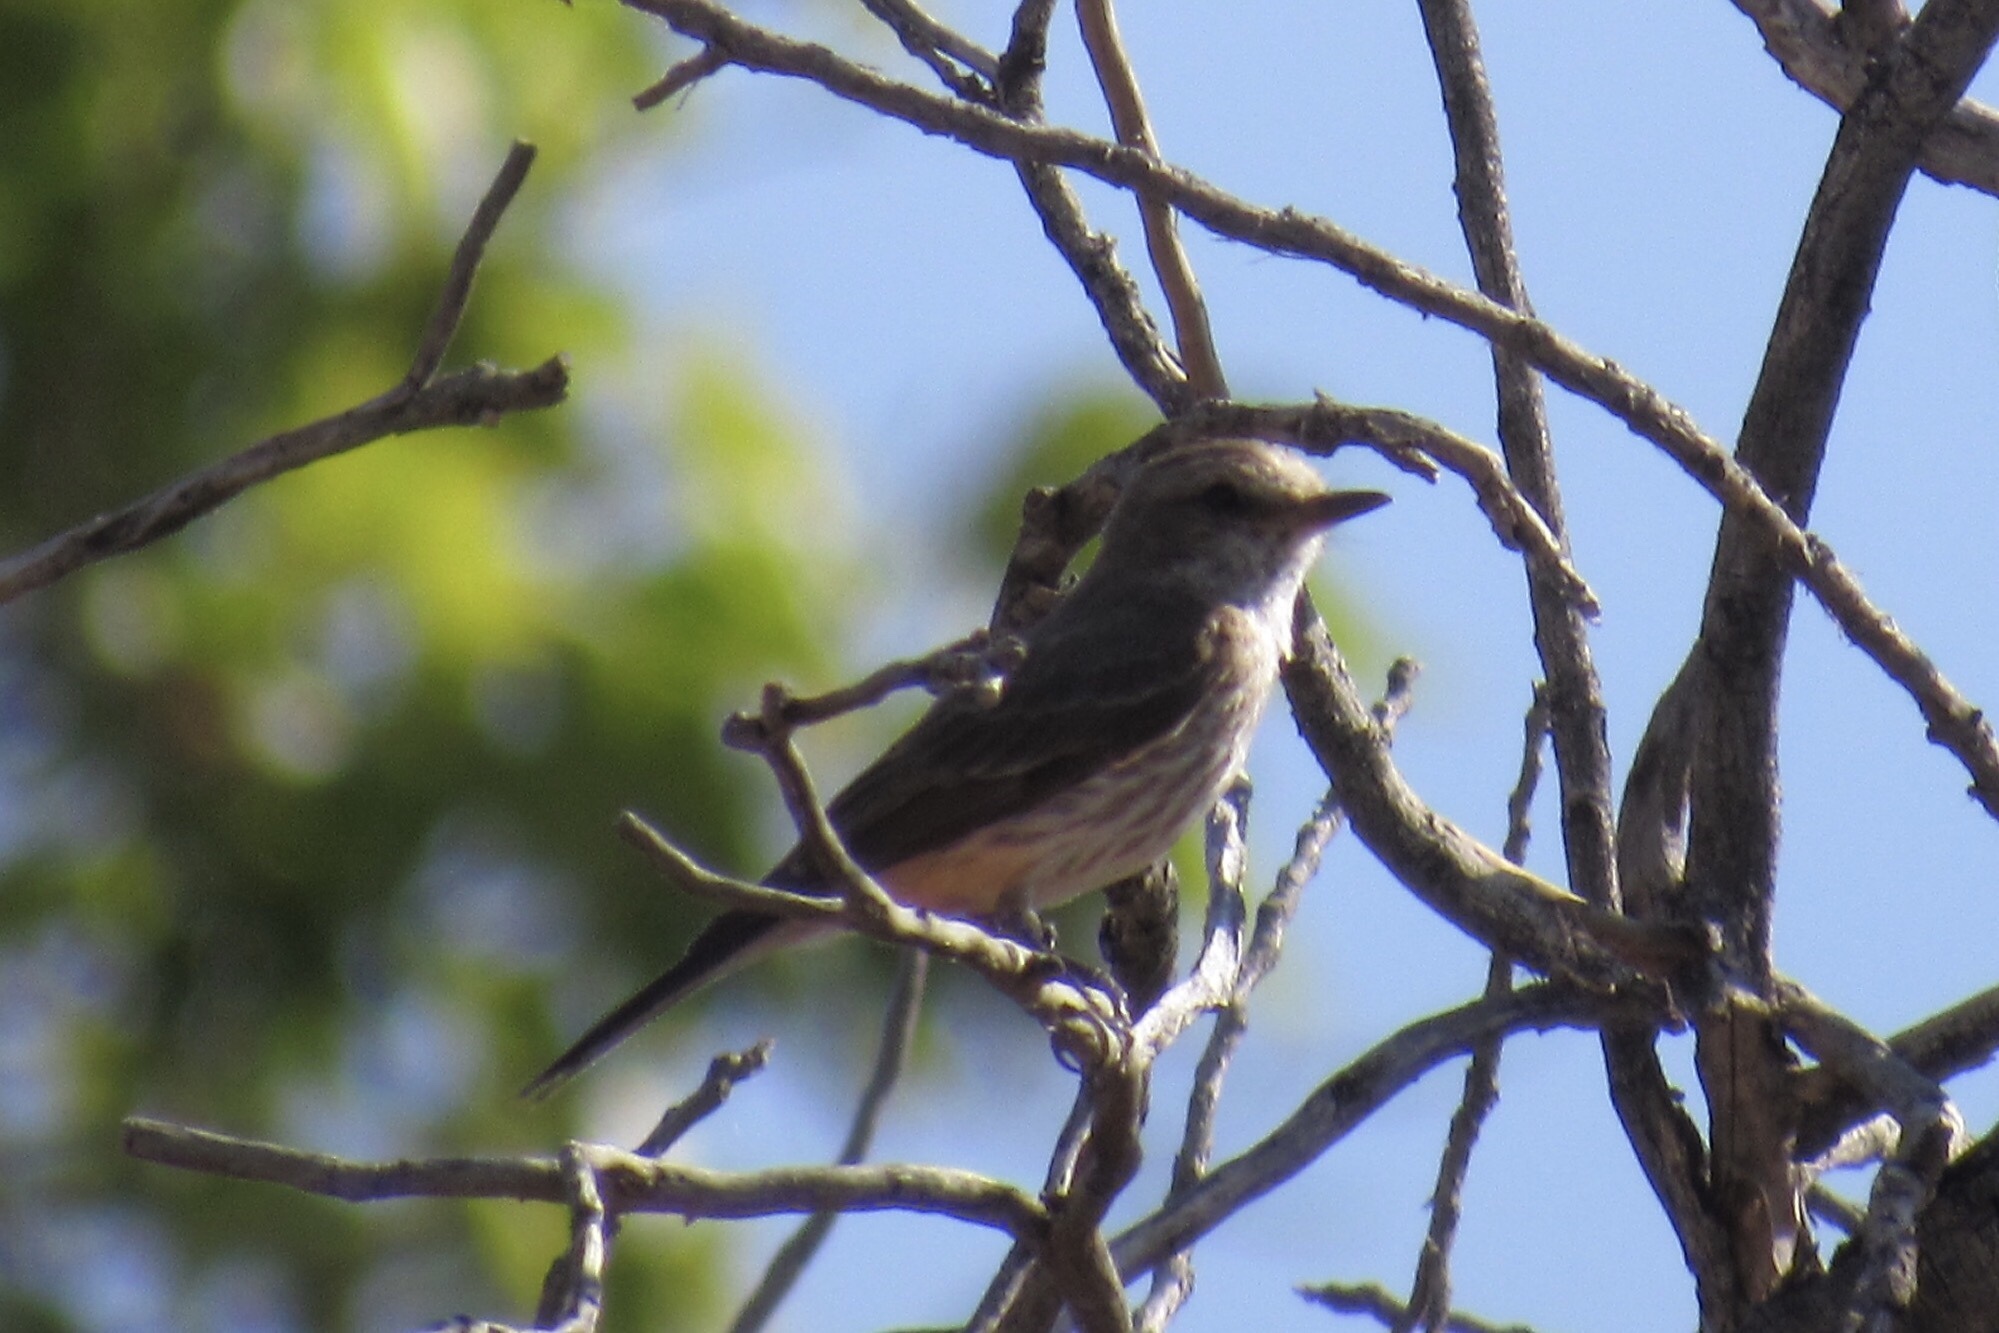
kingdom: Animalia
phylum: Chordata
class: Aves
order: Passeriformes
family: Tyrannidae
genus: Pyrocephalus
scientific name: Pyrocephalus rubinus
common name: Vermilion flycatcher
